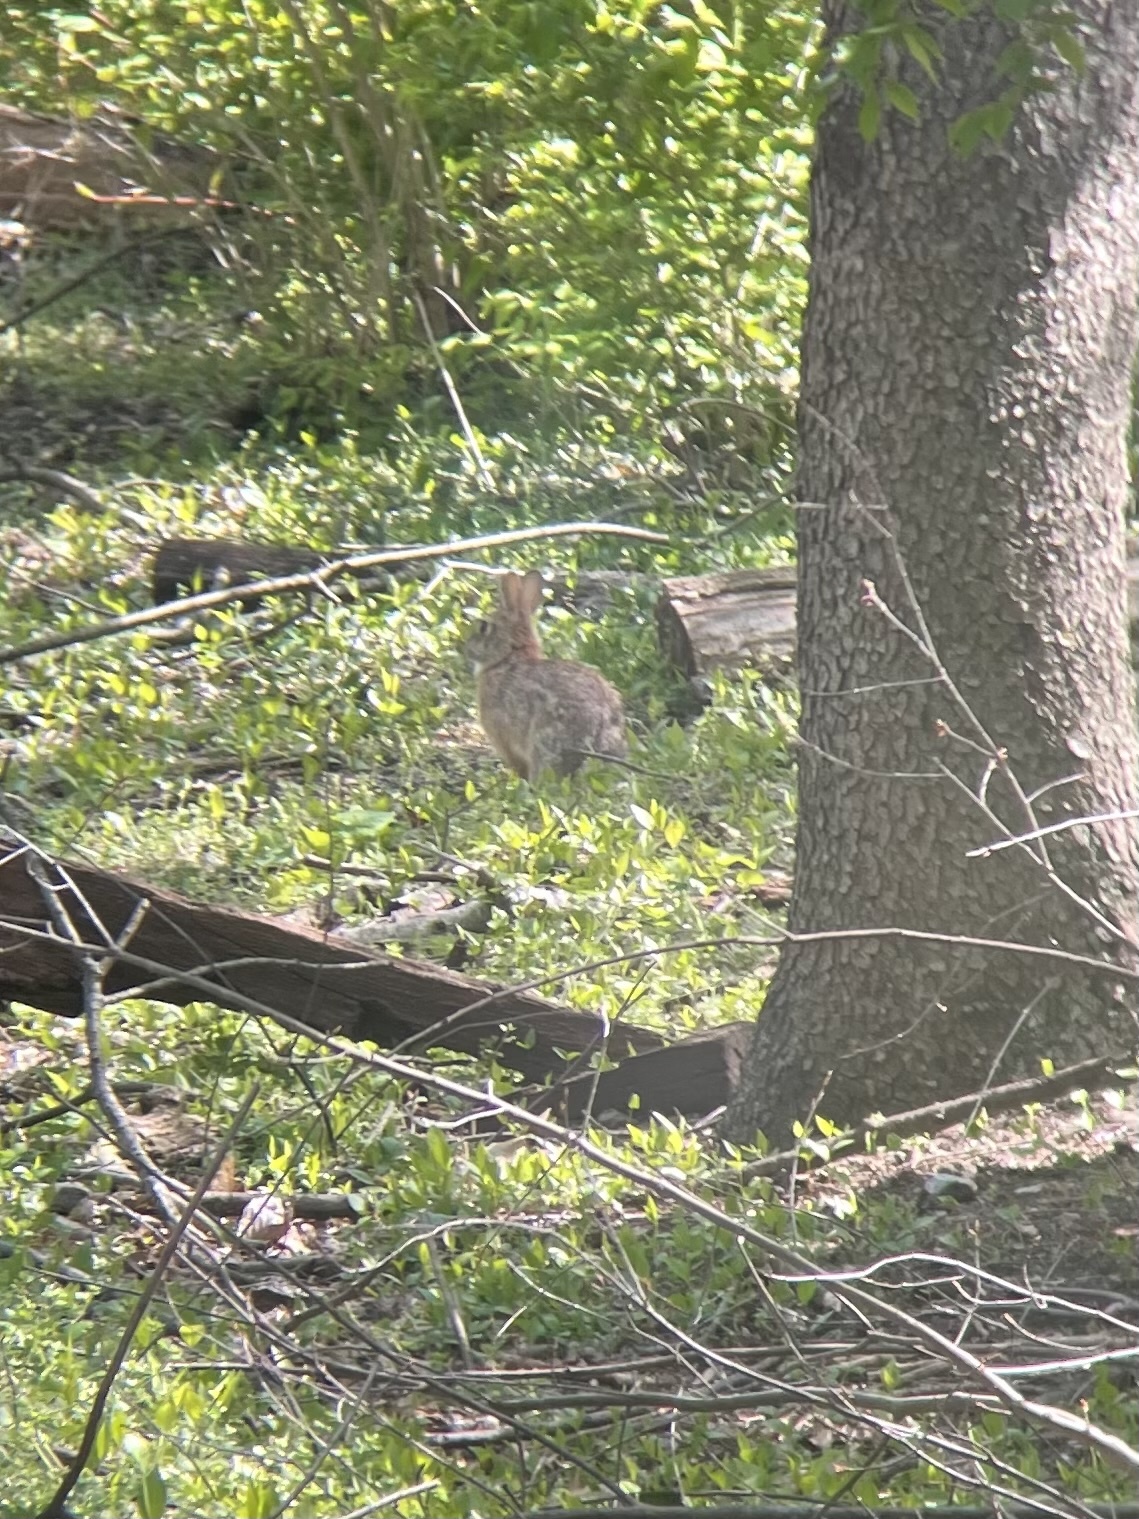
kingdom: Animalia
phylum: Chordata
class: Mammalia
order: Lagomorpha
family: Leporidae
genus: Sylvilagus
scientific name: Sylvilagus floridanus
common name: Eastern cottontail
